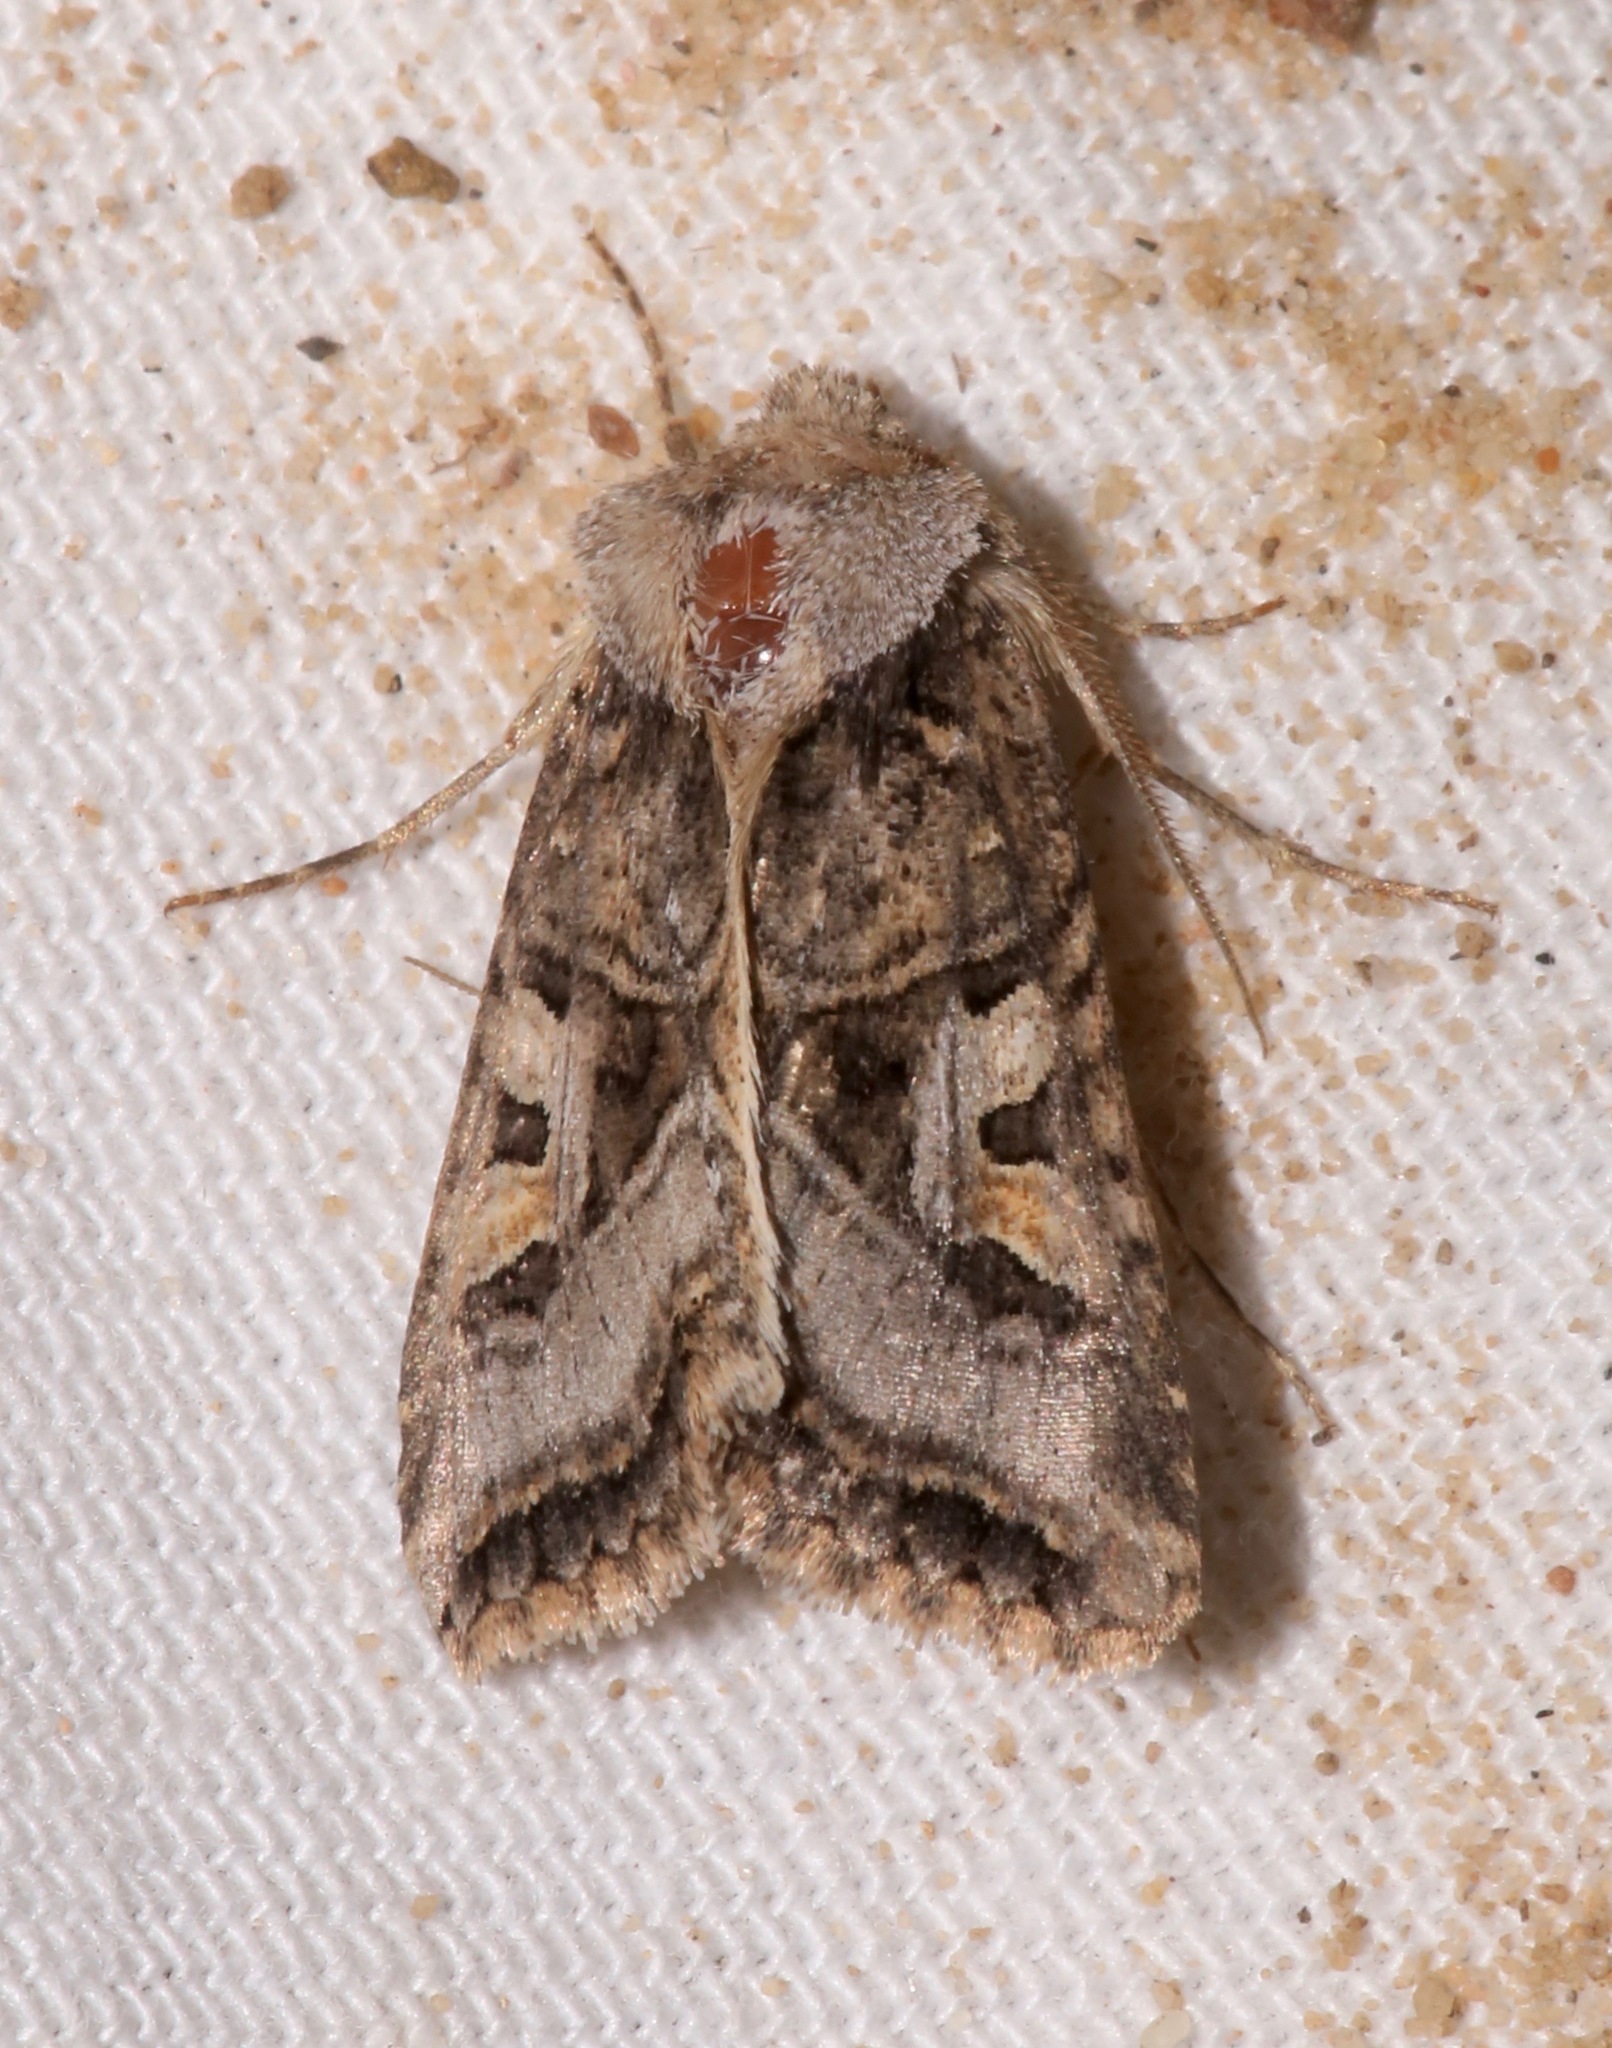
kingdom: Animalia
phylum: Arthropoda
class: Insecta
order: Lepidoptera
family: Noctuidae
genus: Hyperepia
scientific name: Hyperepia jugifera
